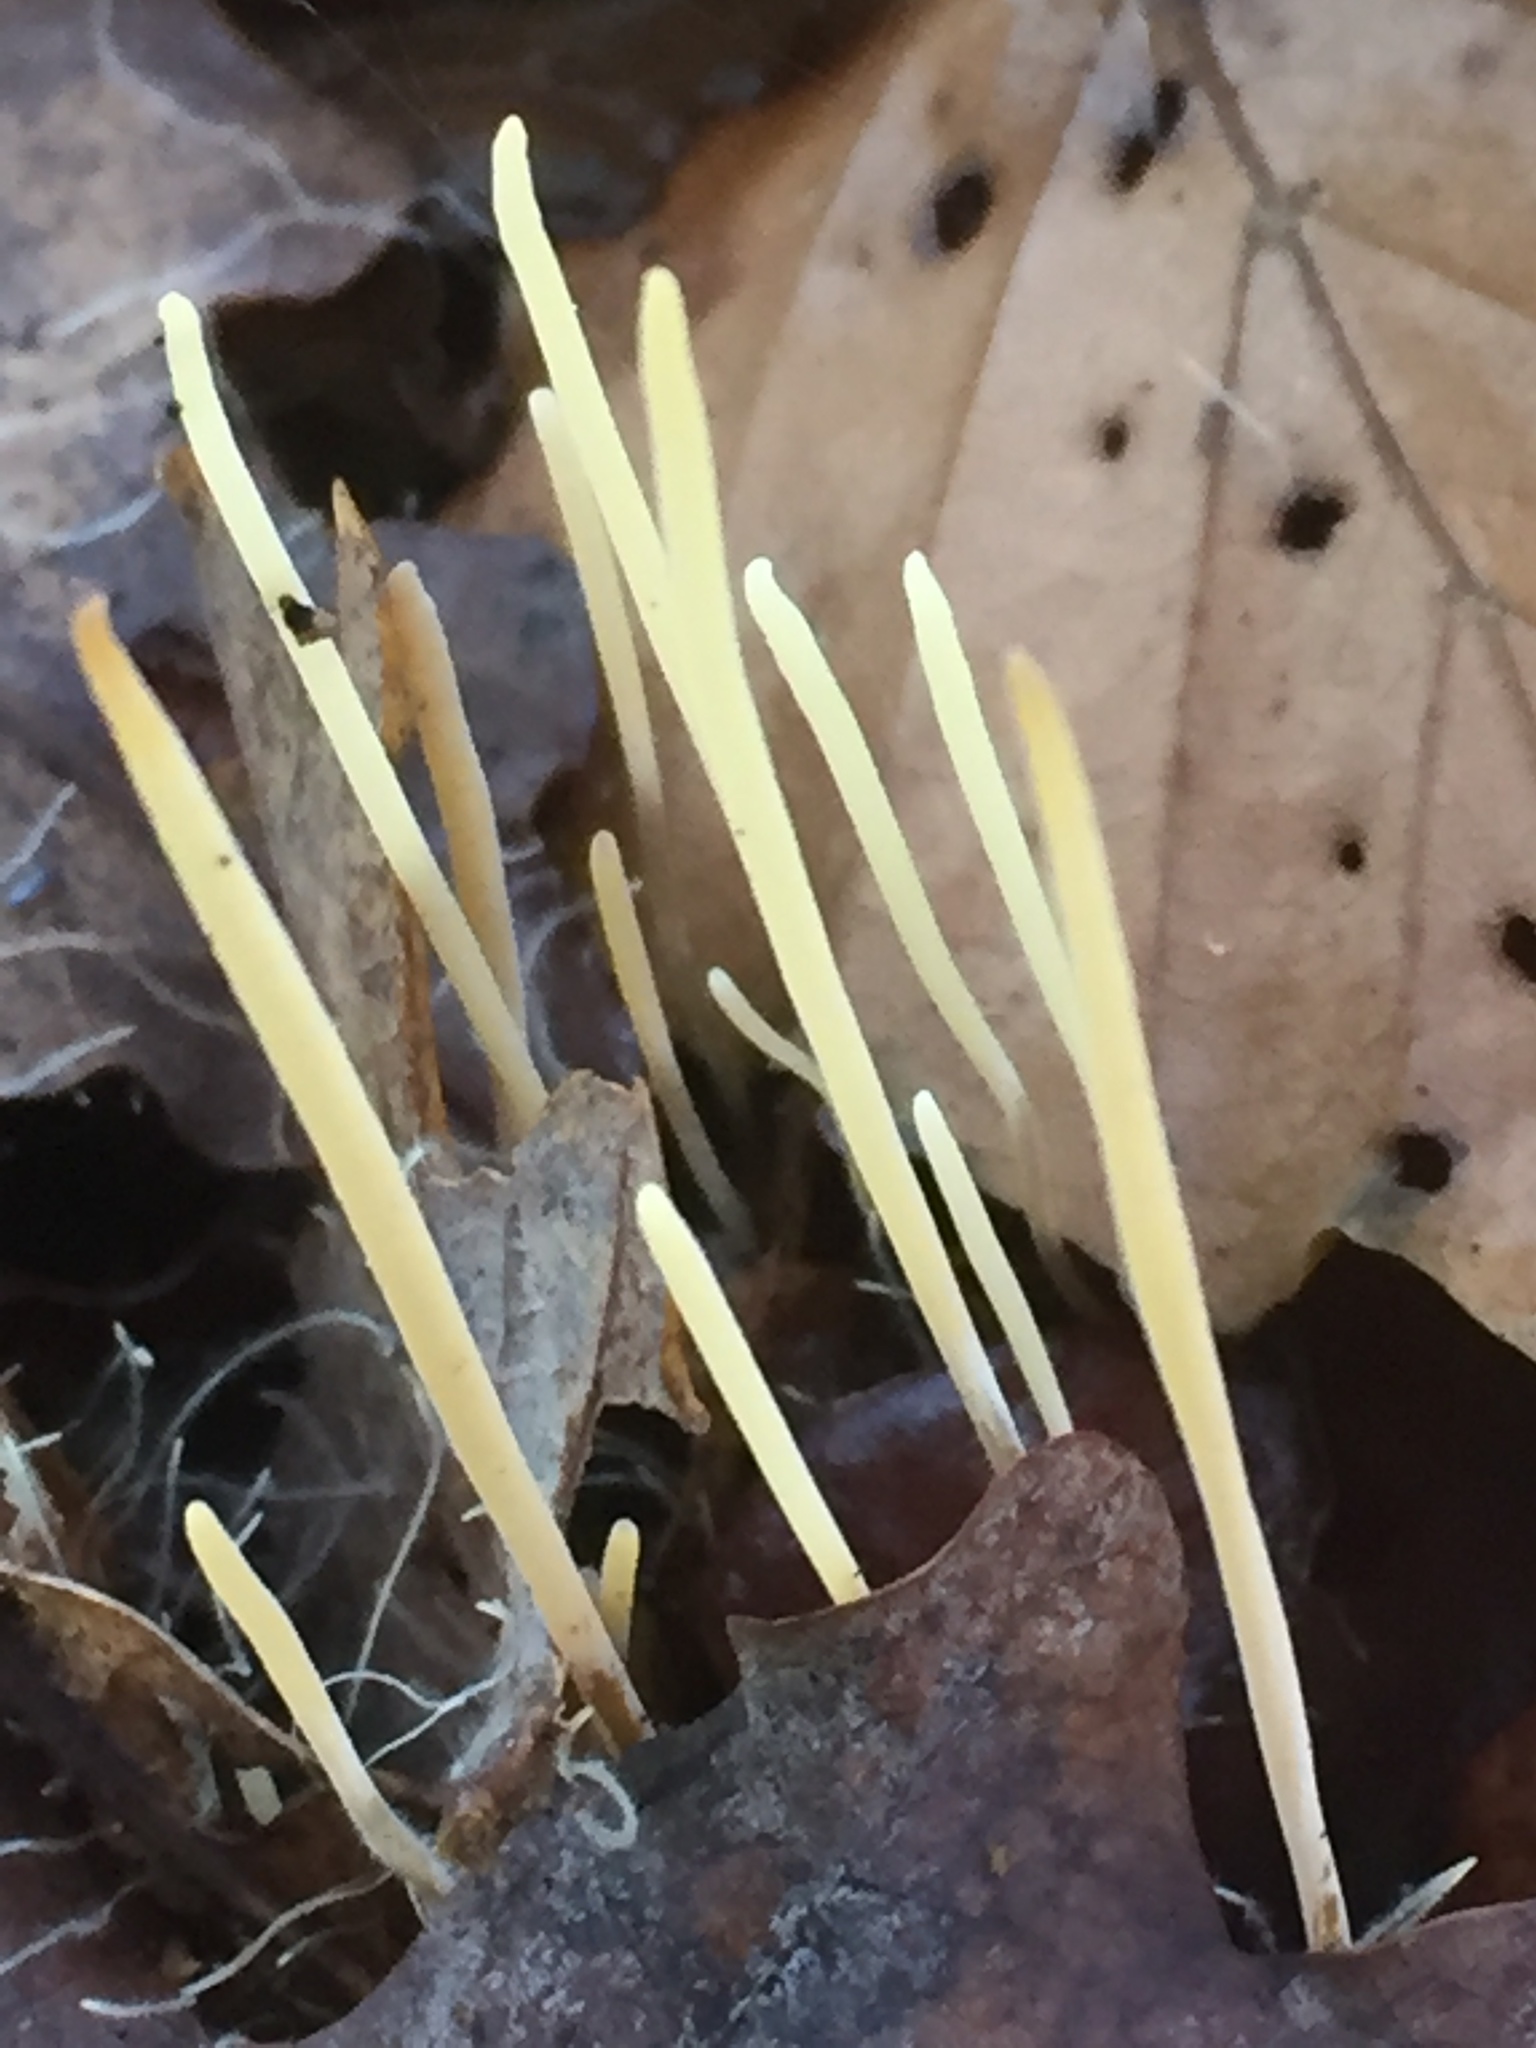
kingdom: Fungi
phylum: Basidiomycota
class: Agaricomycetes
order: Agaricales
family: Typhulaceae
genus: Typhula
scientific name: Typhula juncea
